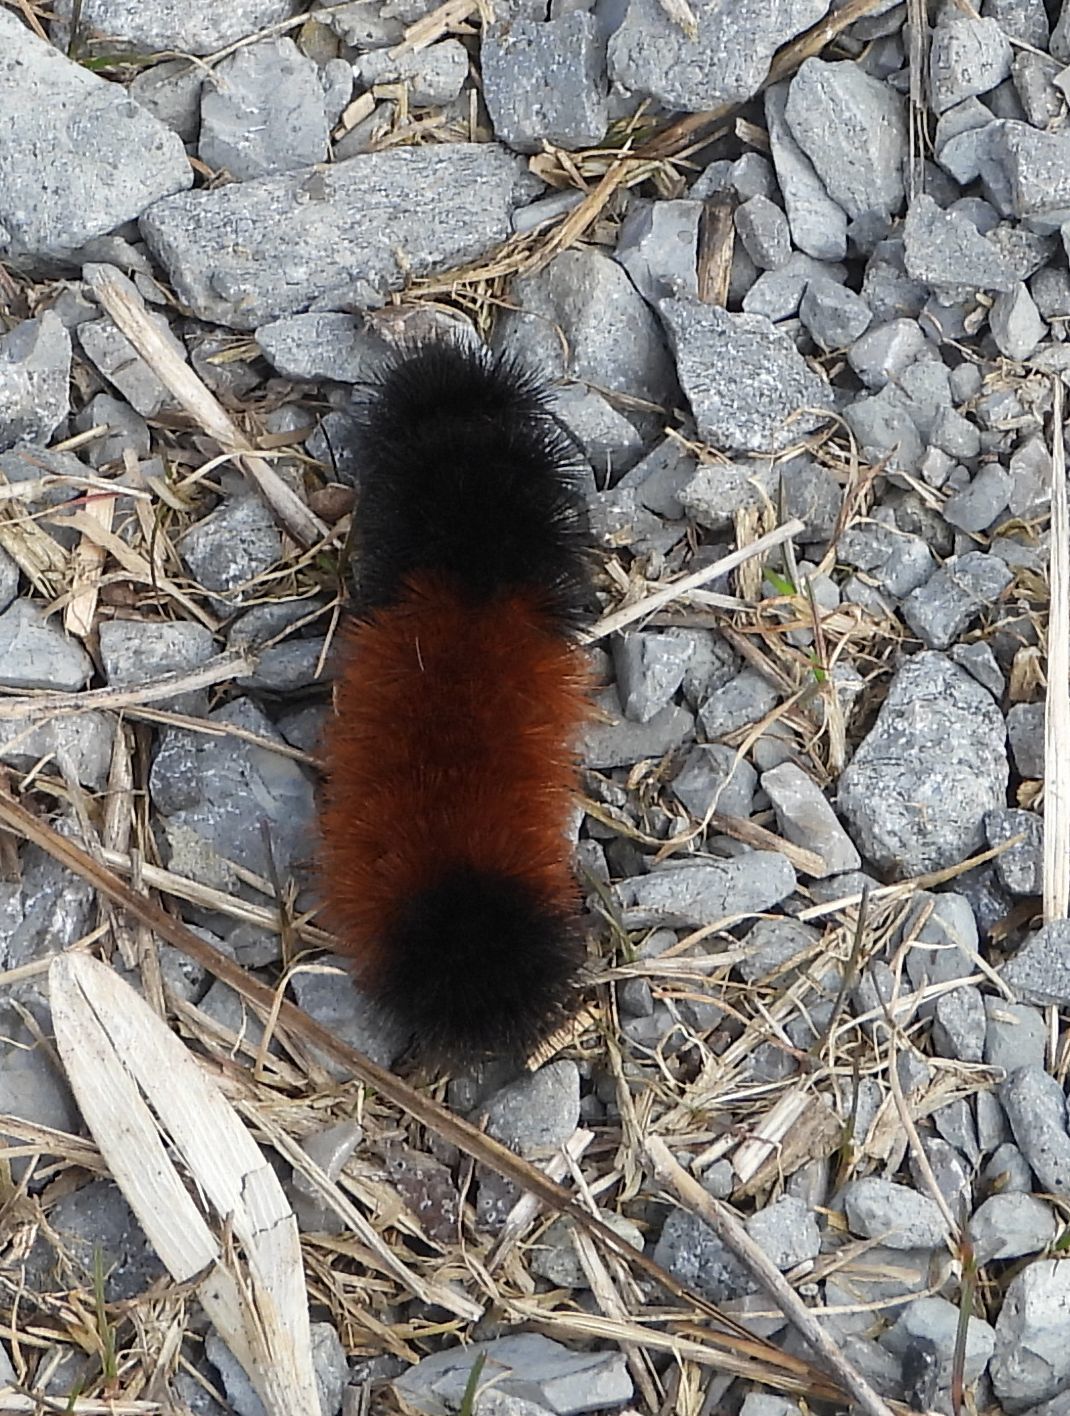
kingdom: Animalia
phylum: Arthropoda
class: Insecta
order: Lepidoptera
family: Erebidae
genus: Pyrrharctia
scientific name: Pyrrharctia isabella
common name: Isabella tiger moth
